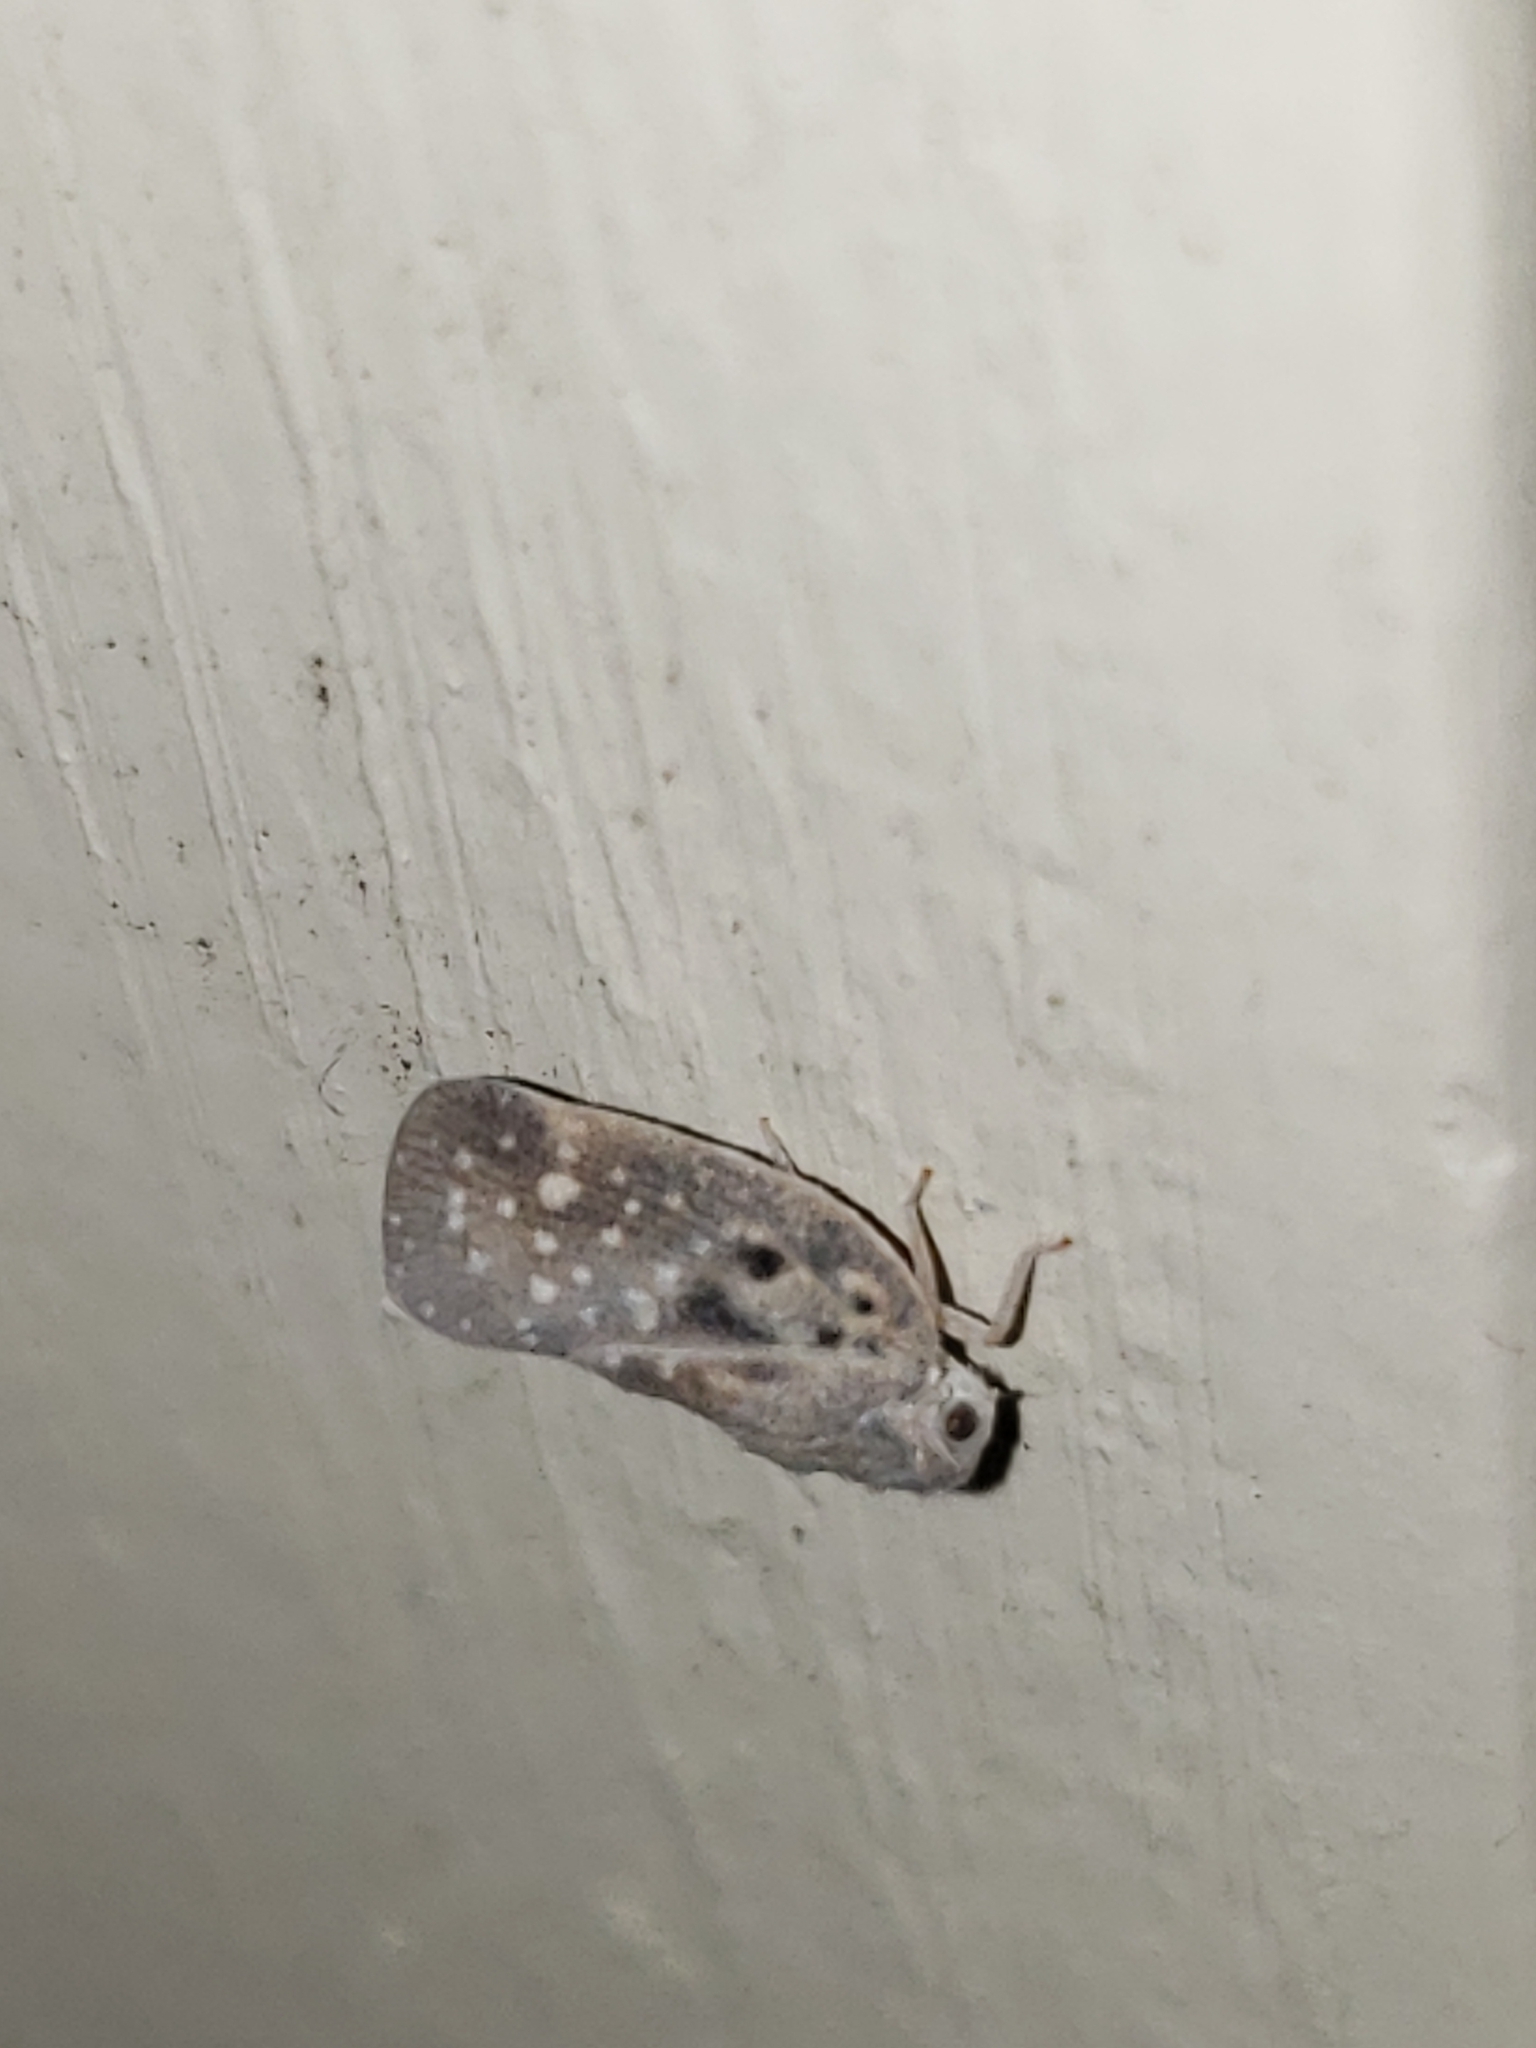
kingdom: Animalia
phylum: Arthropoda
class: Insecta
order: Hemiptera
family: Flatidae
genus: Metcalfa
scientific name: Metcalfa pruinosa
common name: Citrus flatid planthopper
